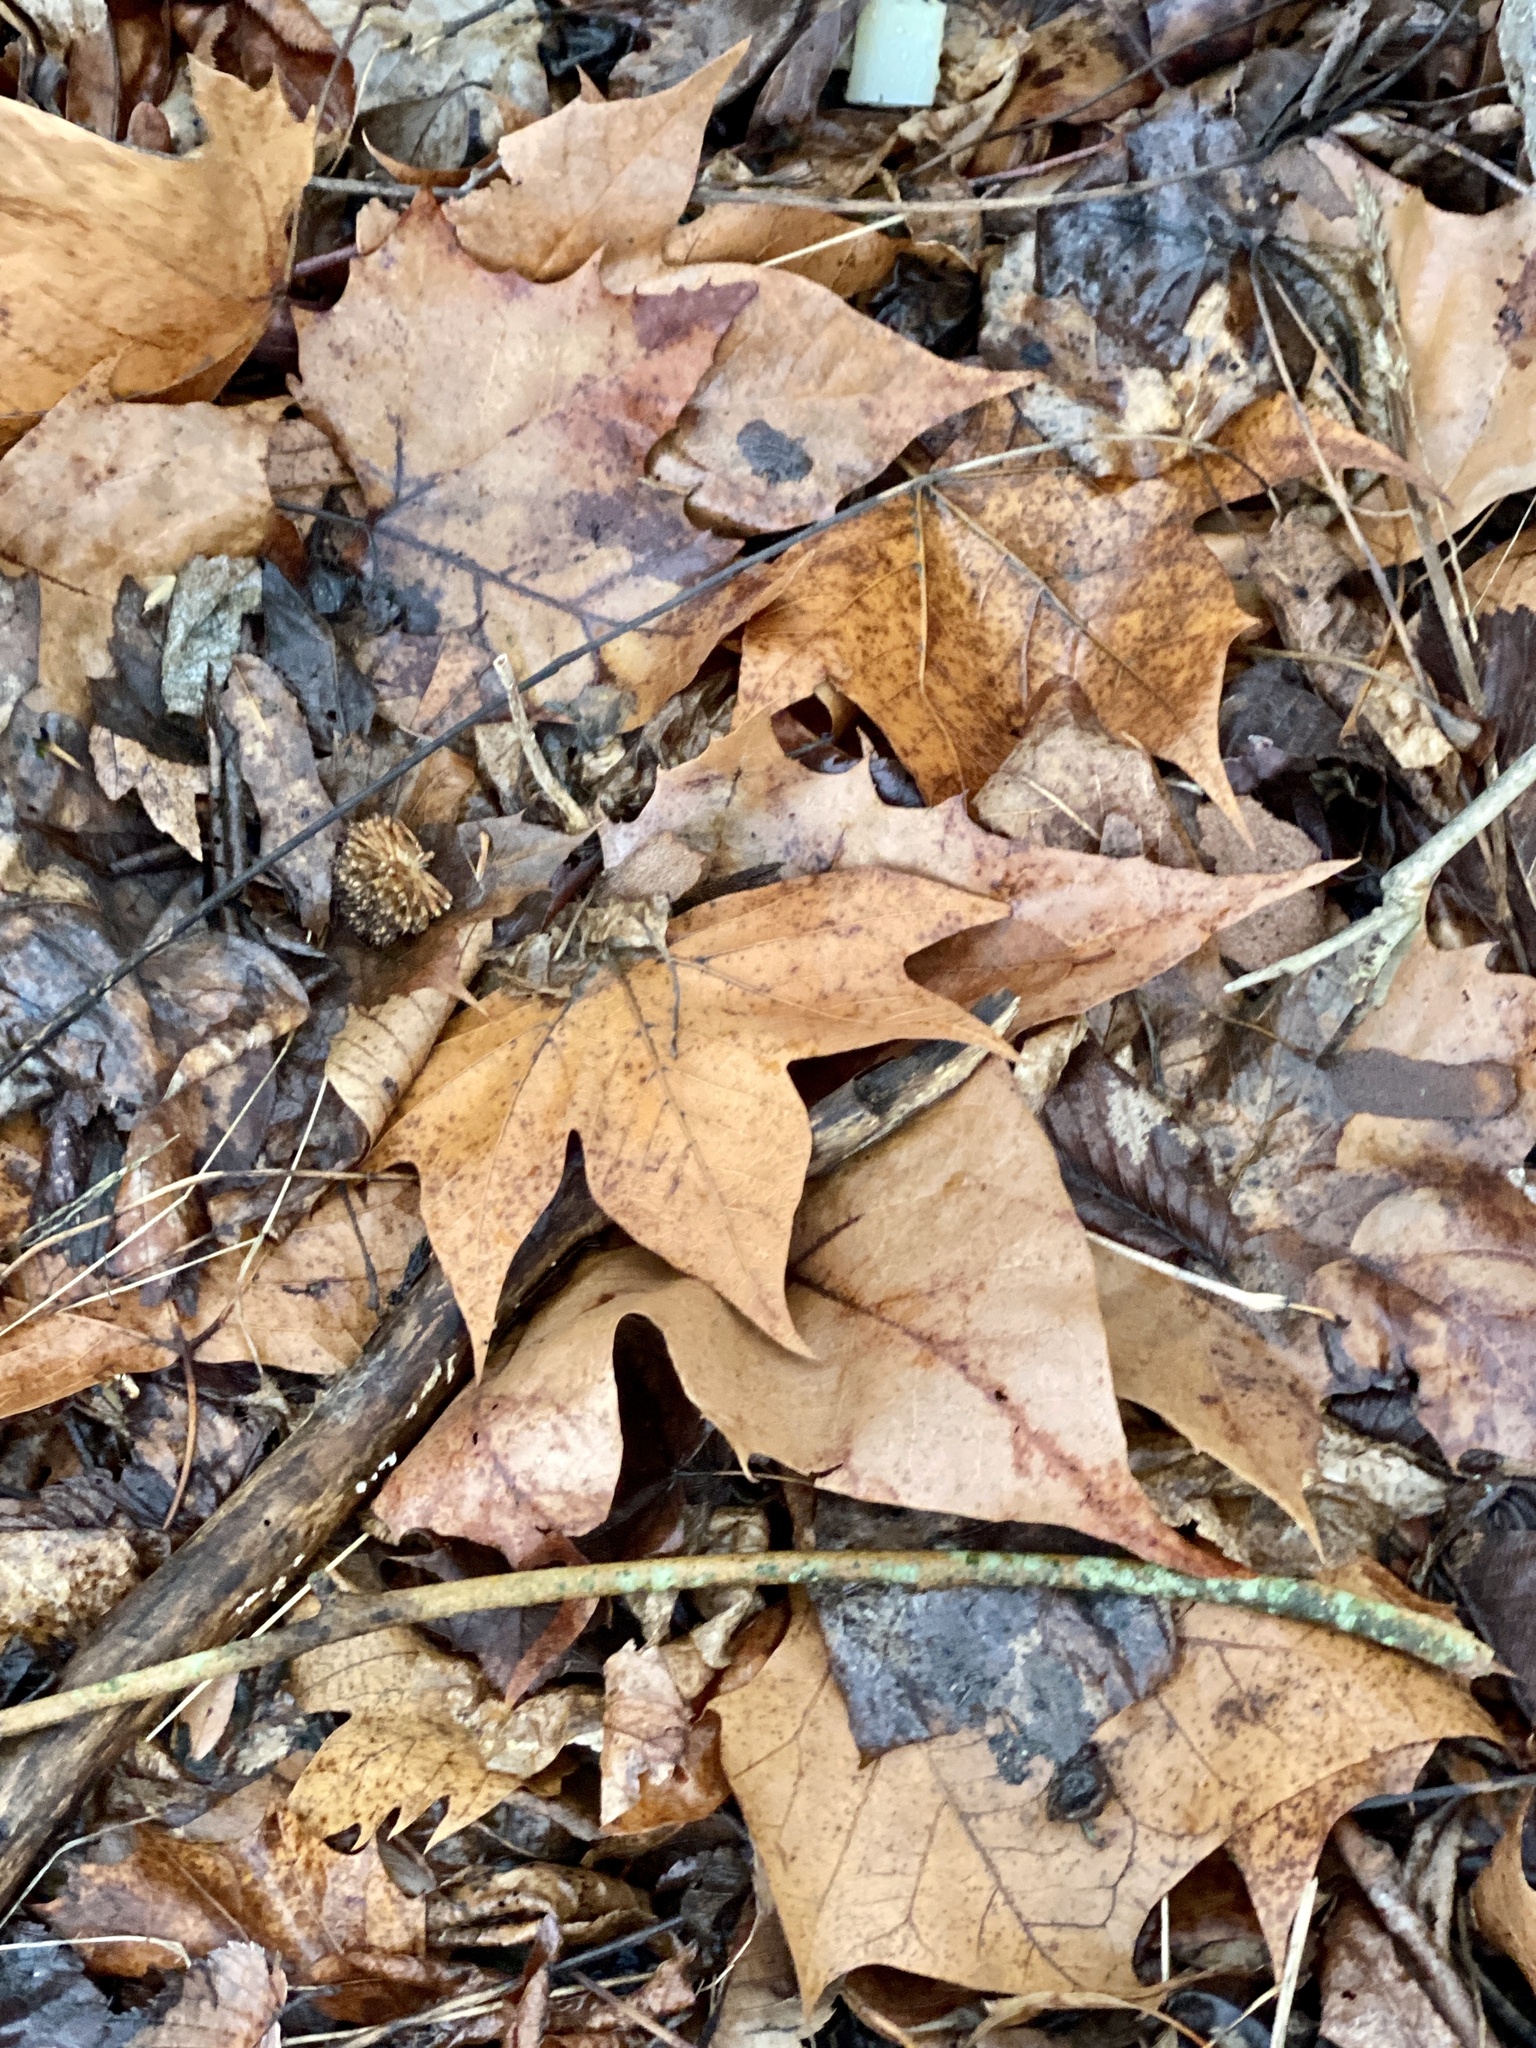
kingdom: Plantae
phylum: Tracheophyta
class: Magnoliopsida
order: Proteales
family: Platanaceae
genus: Platanus
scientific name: Platanus occidentalis
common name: American sycamore
